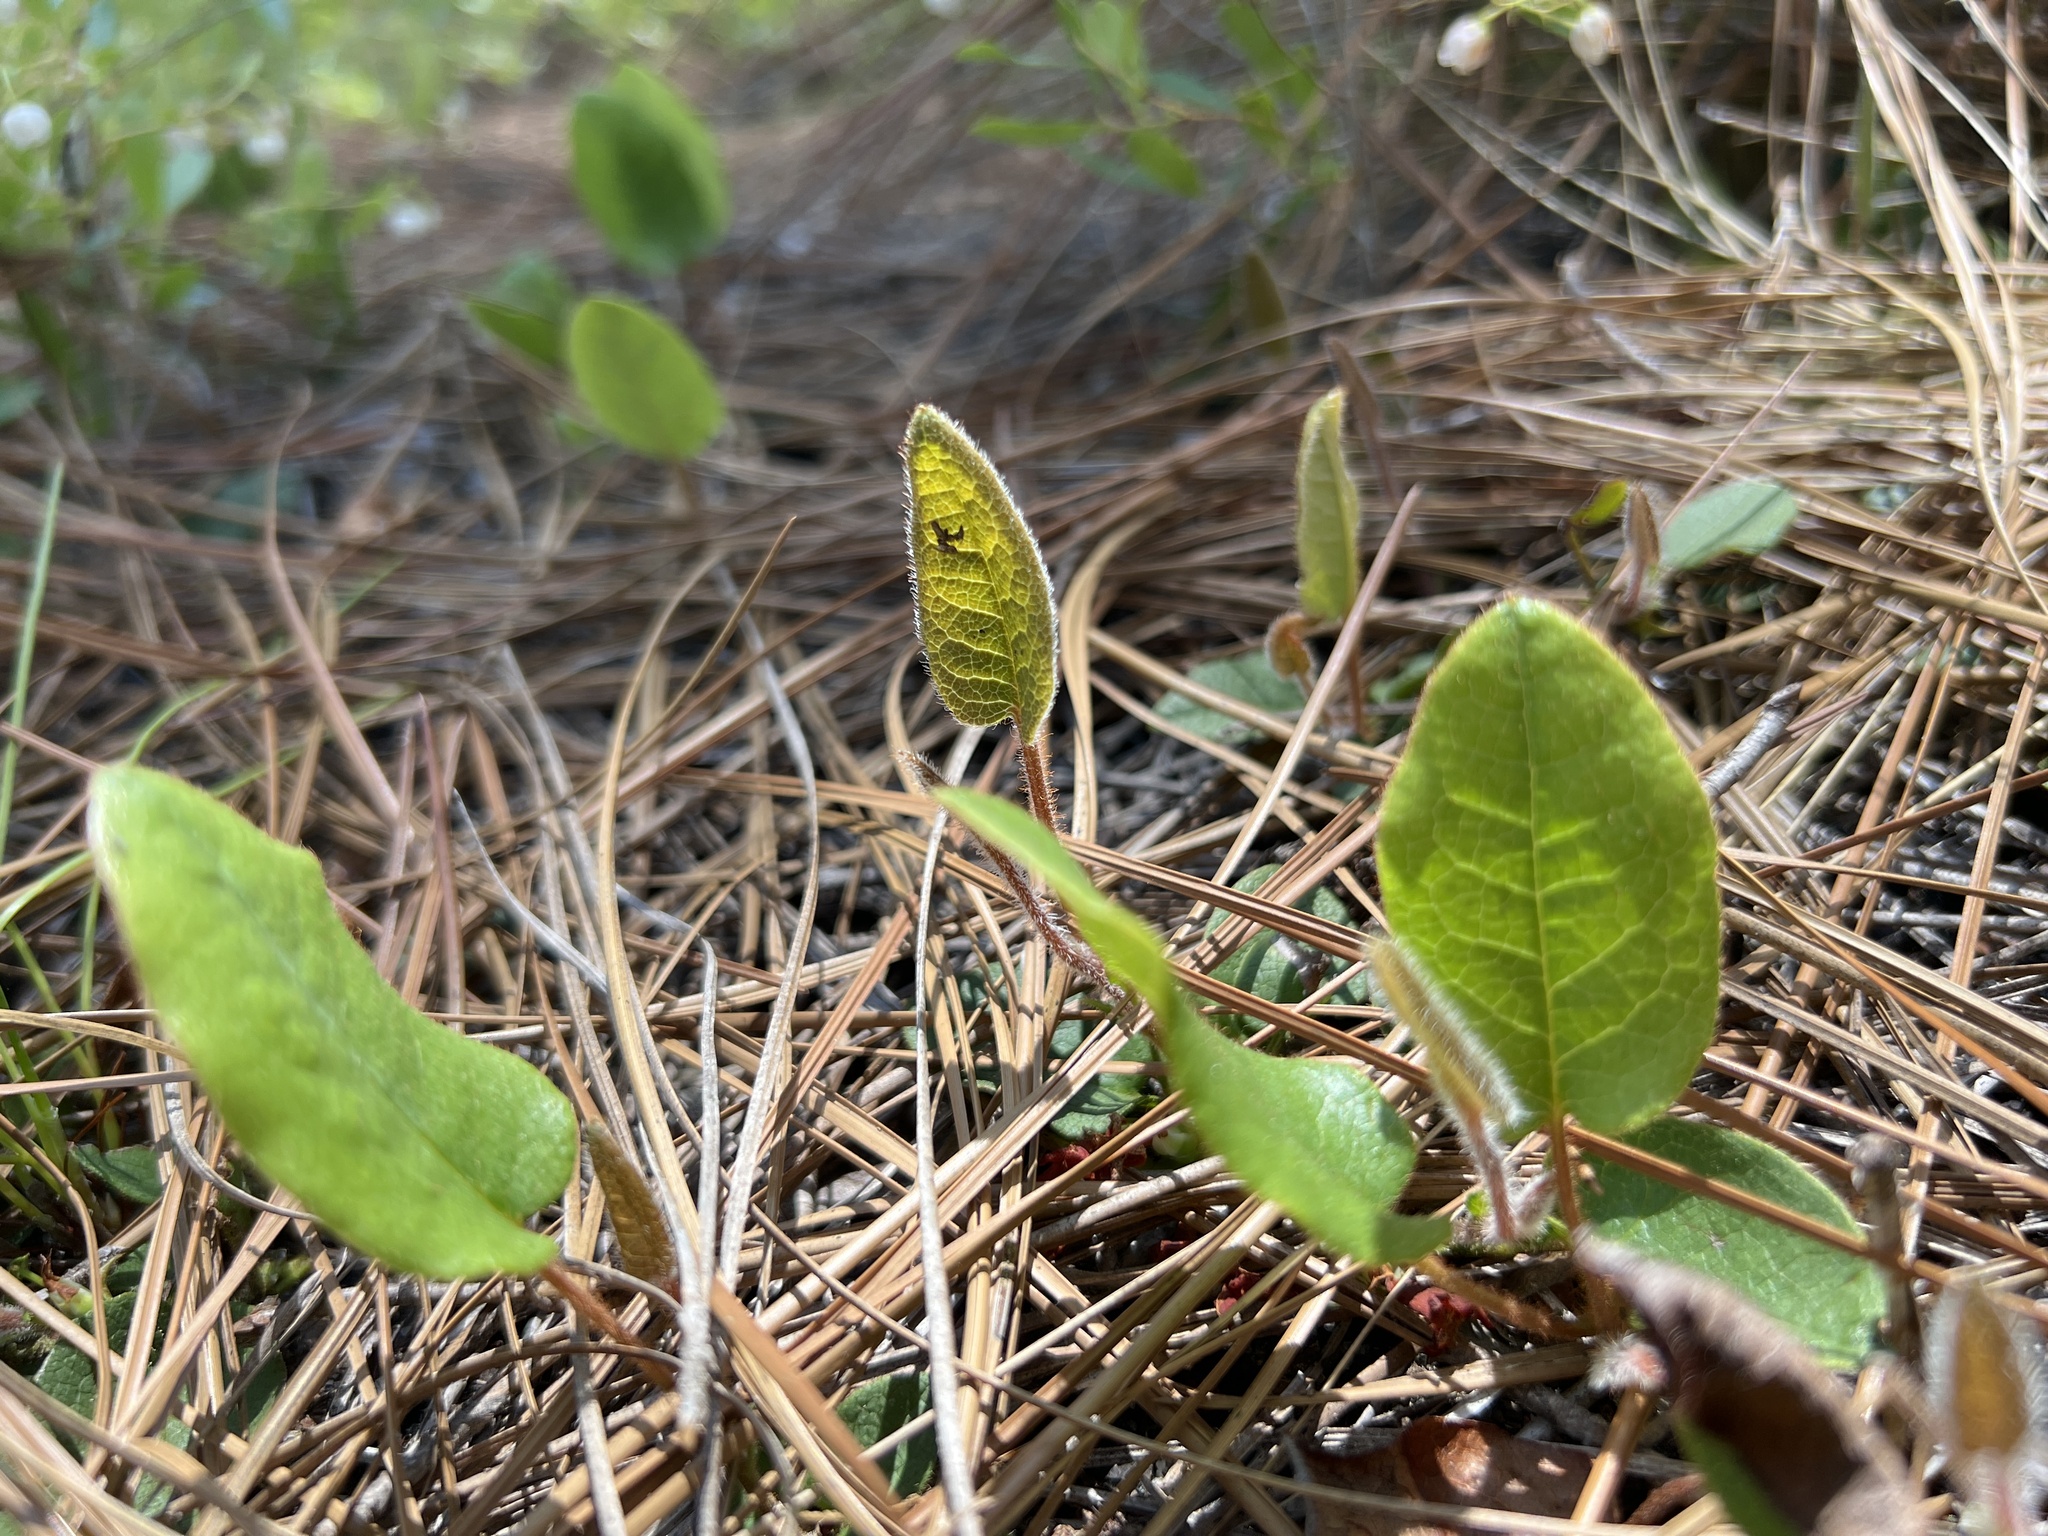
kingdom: Plantae
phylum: Tracheophyta
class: Magnoliopsida
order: Ericales
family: Ericaceae
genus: Epigaea
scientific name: Epigaea repens
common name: Gravelroot
